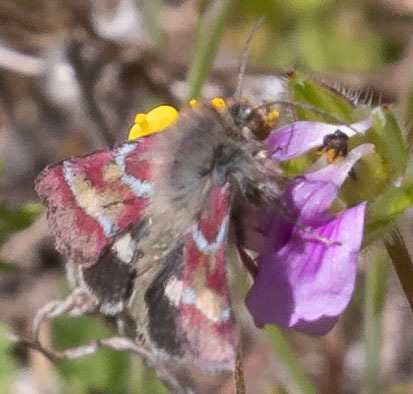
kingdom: Animalia
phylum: Arthropoda
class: Insecta
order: Lepidoptera
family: Noctuidae
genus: Schinia
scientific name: Schinia pulchripennis
